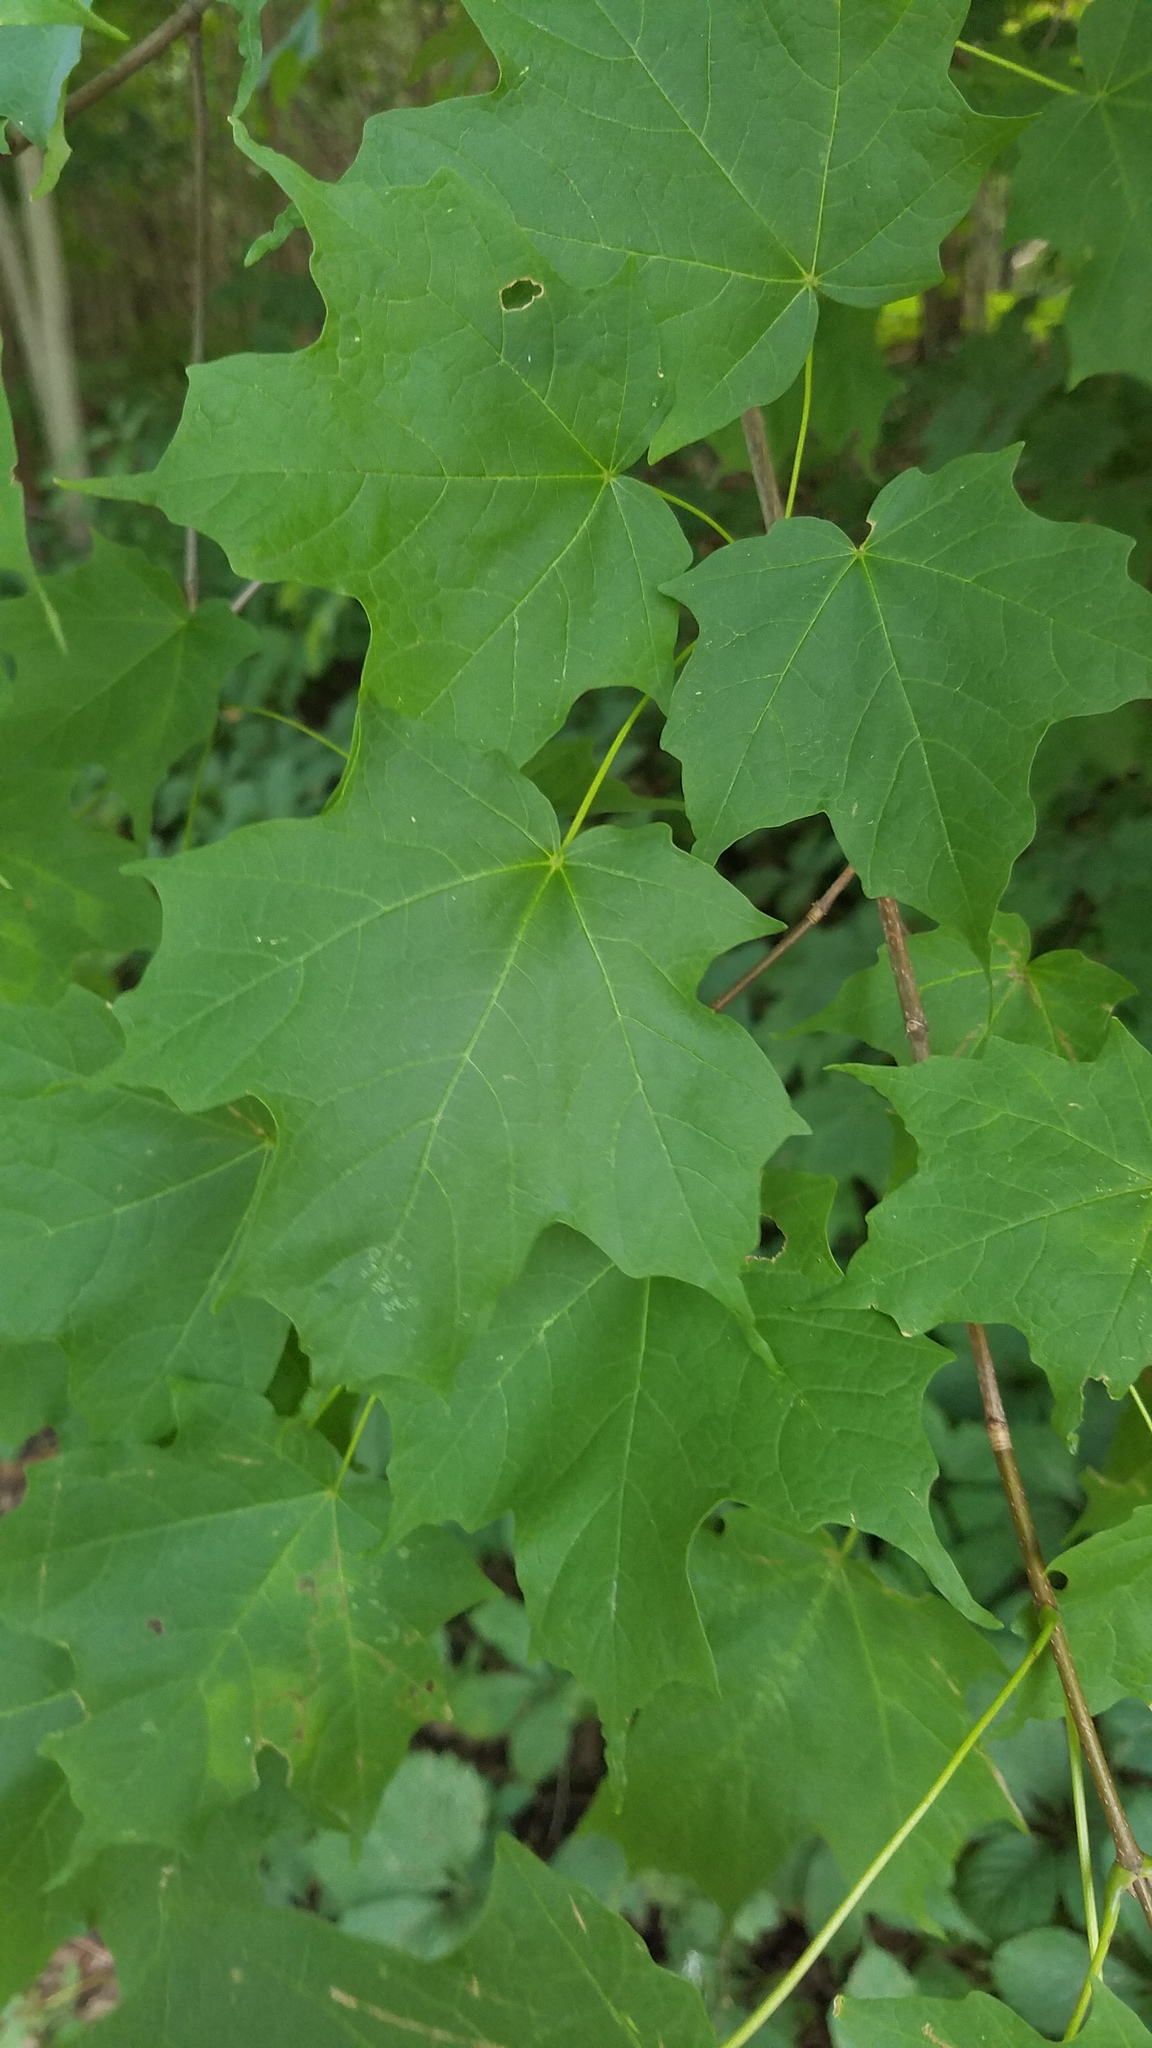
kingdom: Plantae
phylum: Tracheophyta
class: Magnoliopsida
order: Sapindales
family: Sapindaceae
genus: Acer
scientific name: Acer saccharum
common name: Sugar maple
